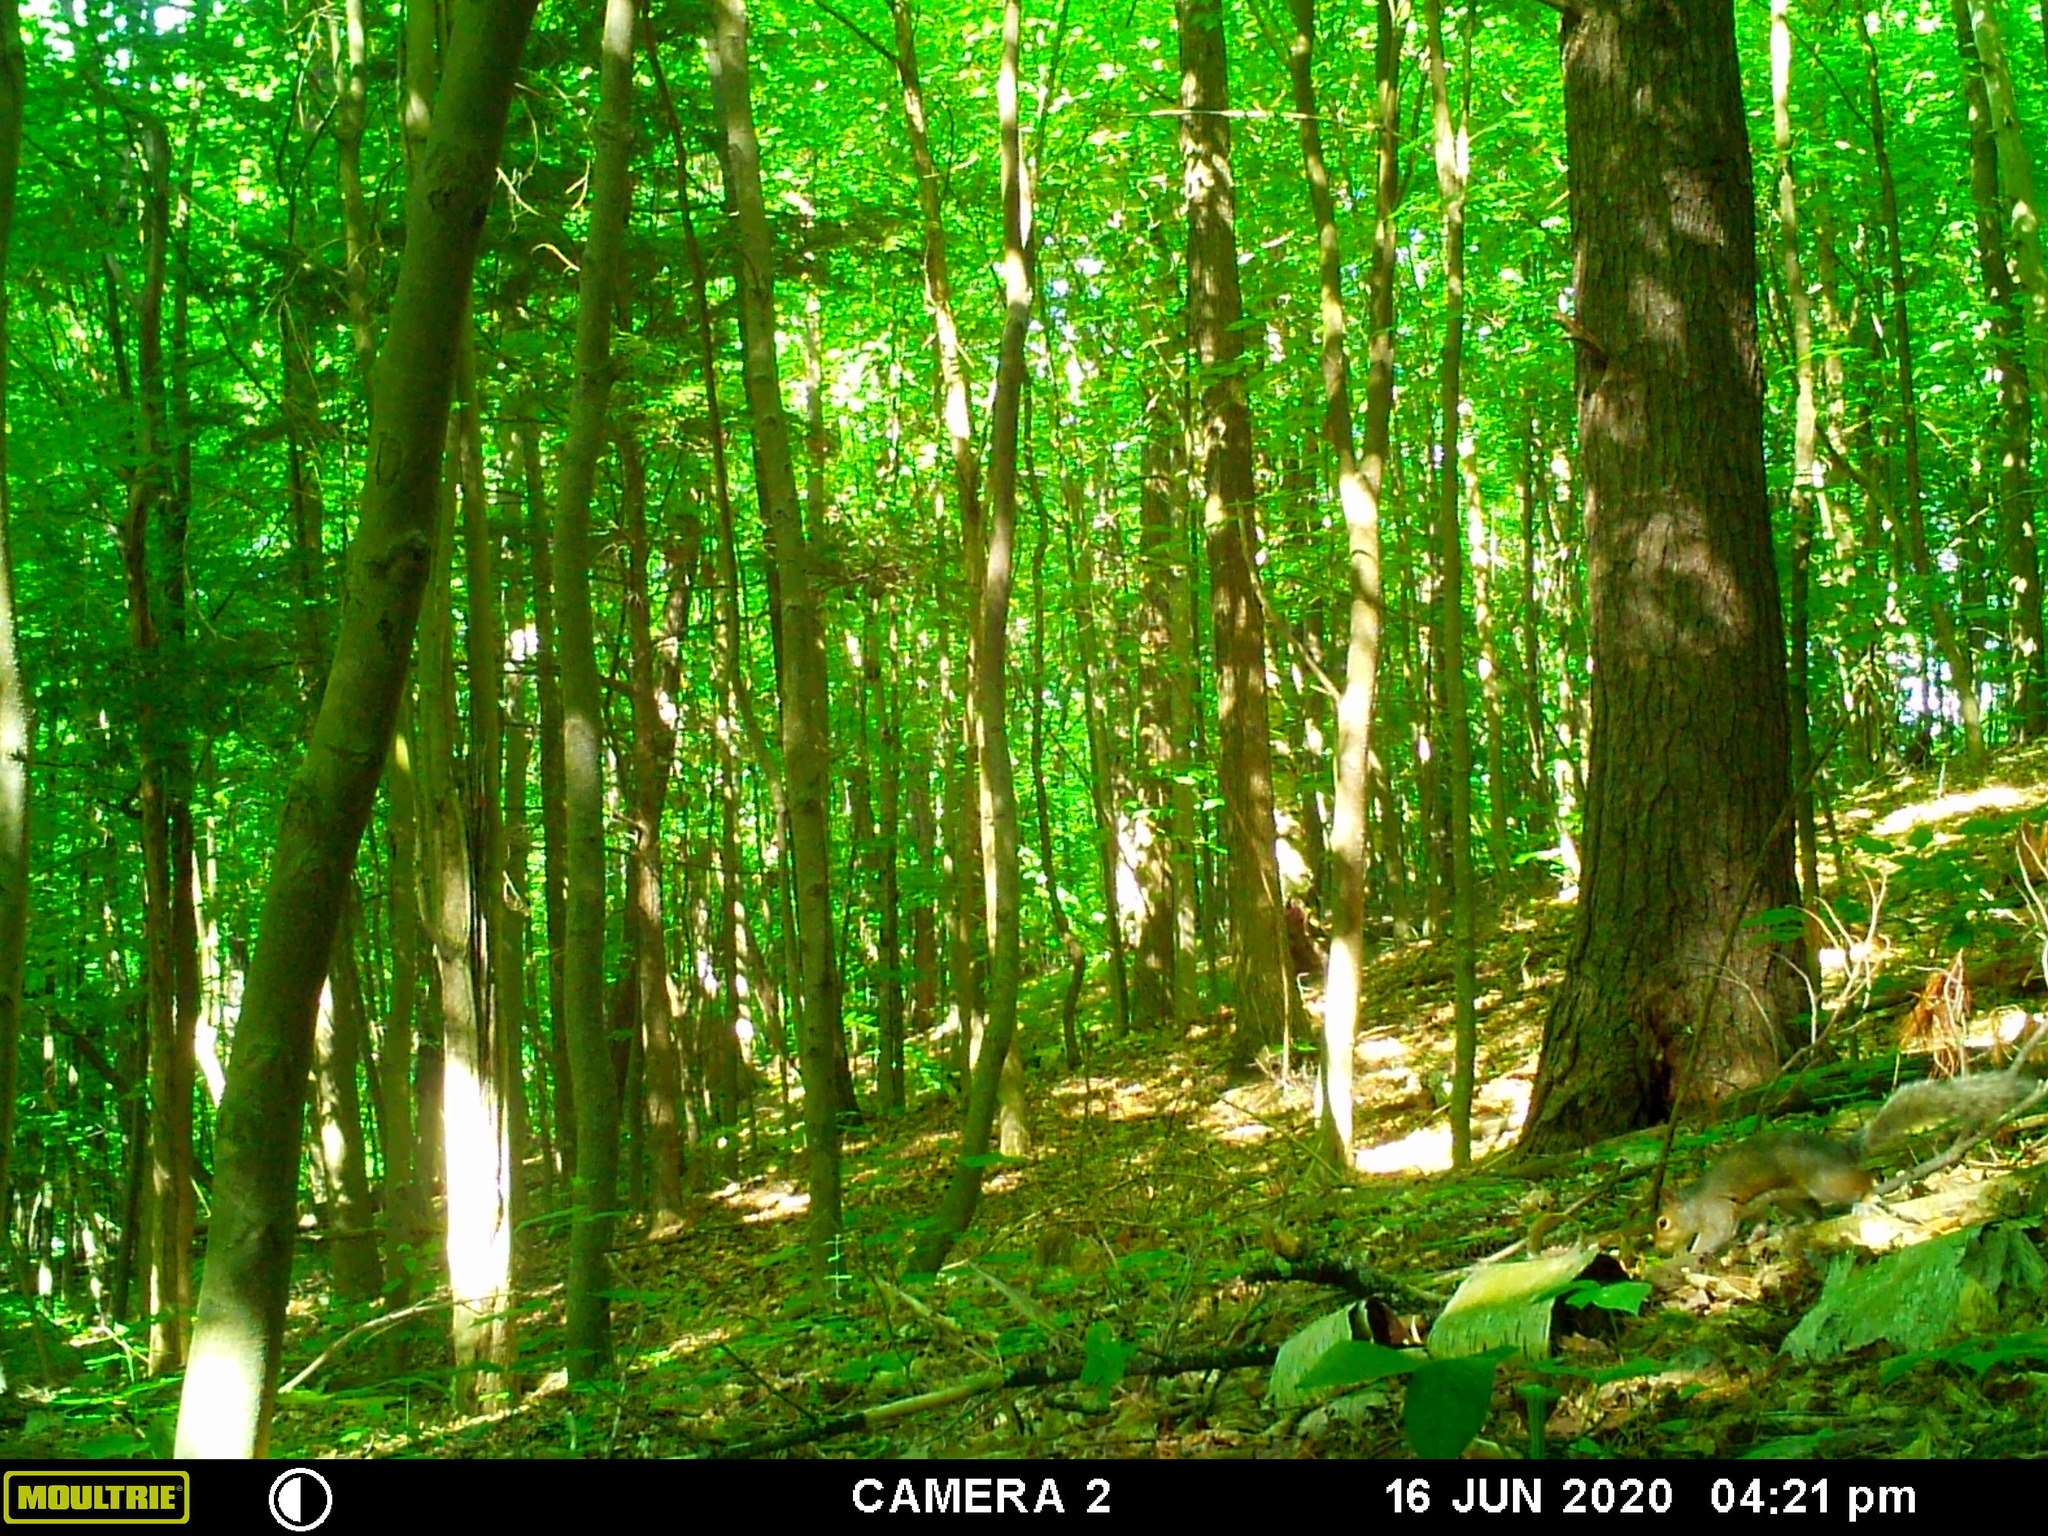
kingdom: Animalia
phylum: Chordata
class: Mammalia
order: Rodentia
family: Sciuridae
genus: Sciurus
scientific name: Sciurus carolinensis
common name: Eastern gray squirrel
